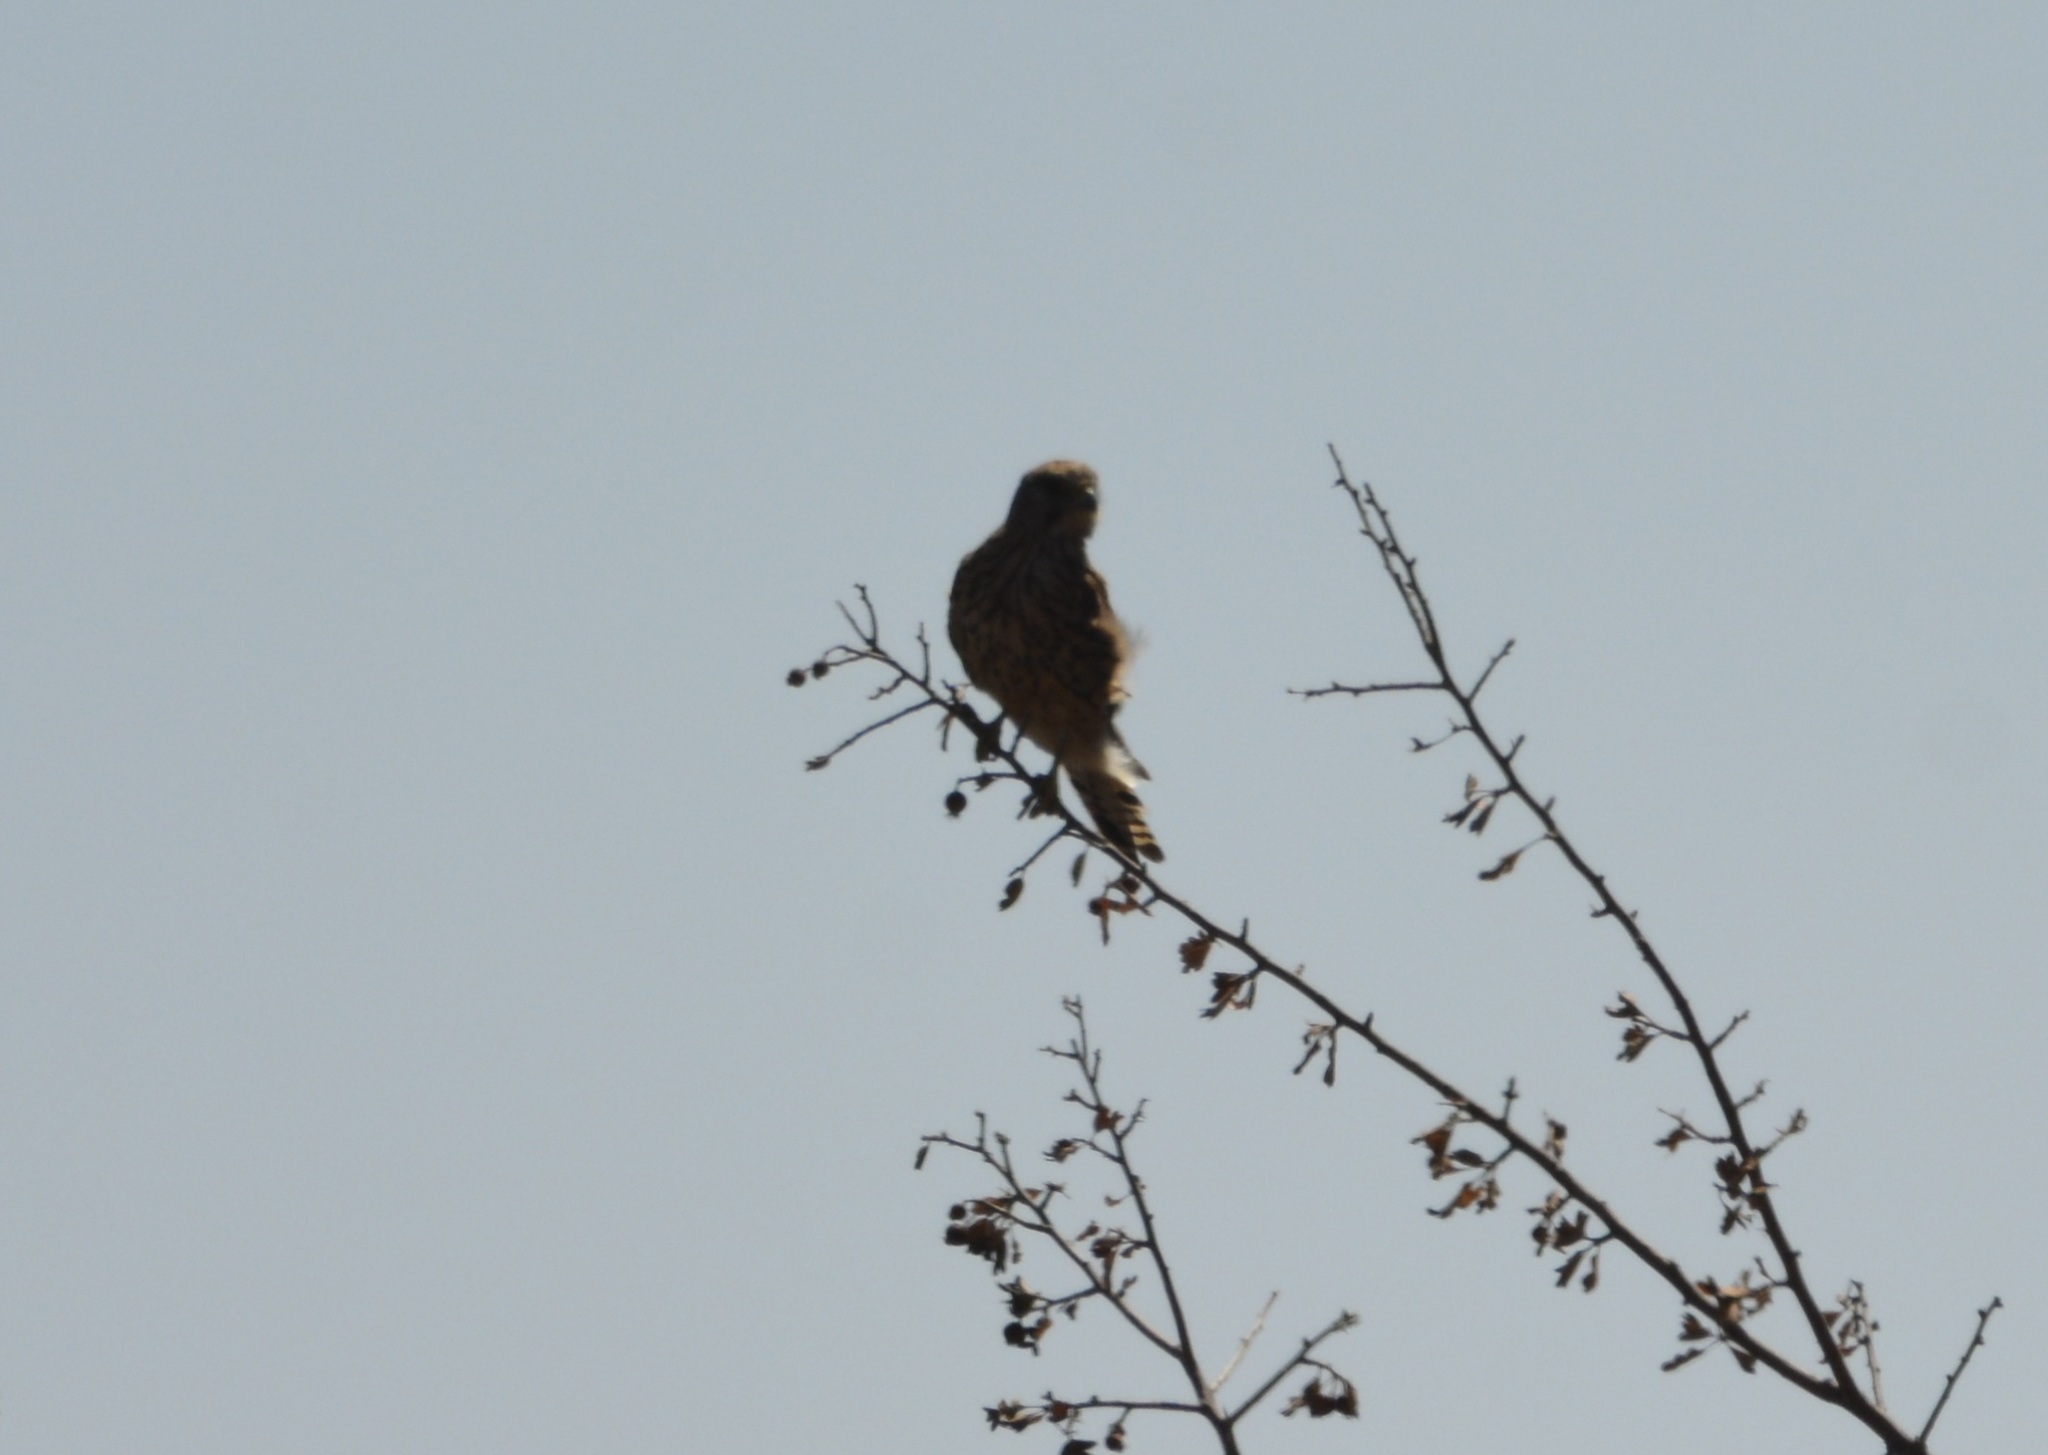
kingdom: Animalia
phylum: Chordata
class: Aves
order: Falconiformes
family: Falconidae
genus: Falco
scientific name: Falco tinnunculus
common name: Common kestrel
